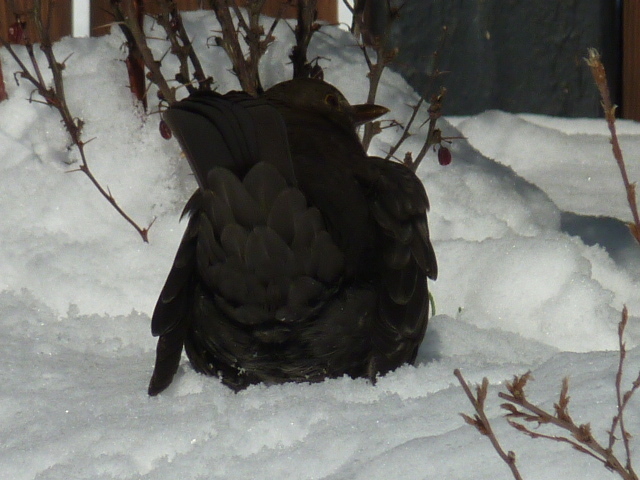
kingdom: Animalia
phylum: Chordata
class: Aves
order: Passeriformes
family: Turdidae
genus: Turdus
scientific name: Turdus merula
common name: Common blackbird
